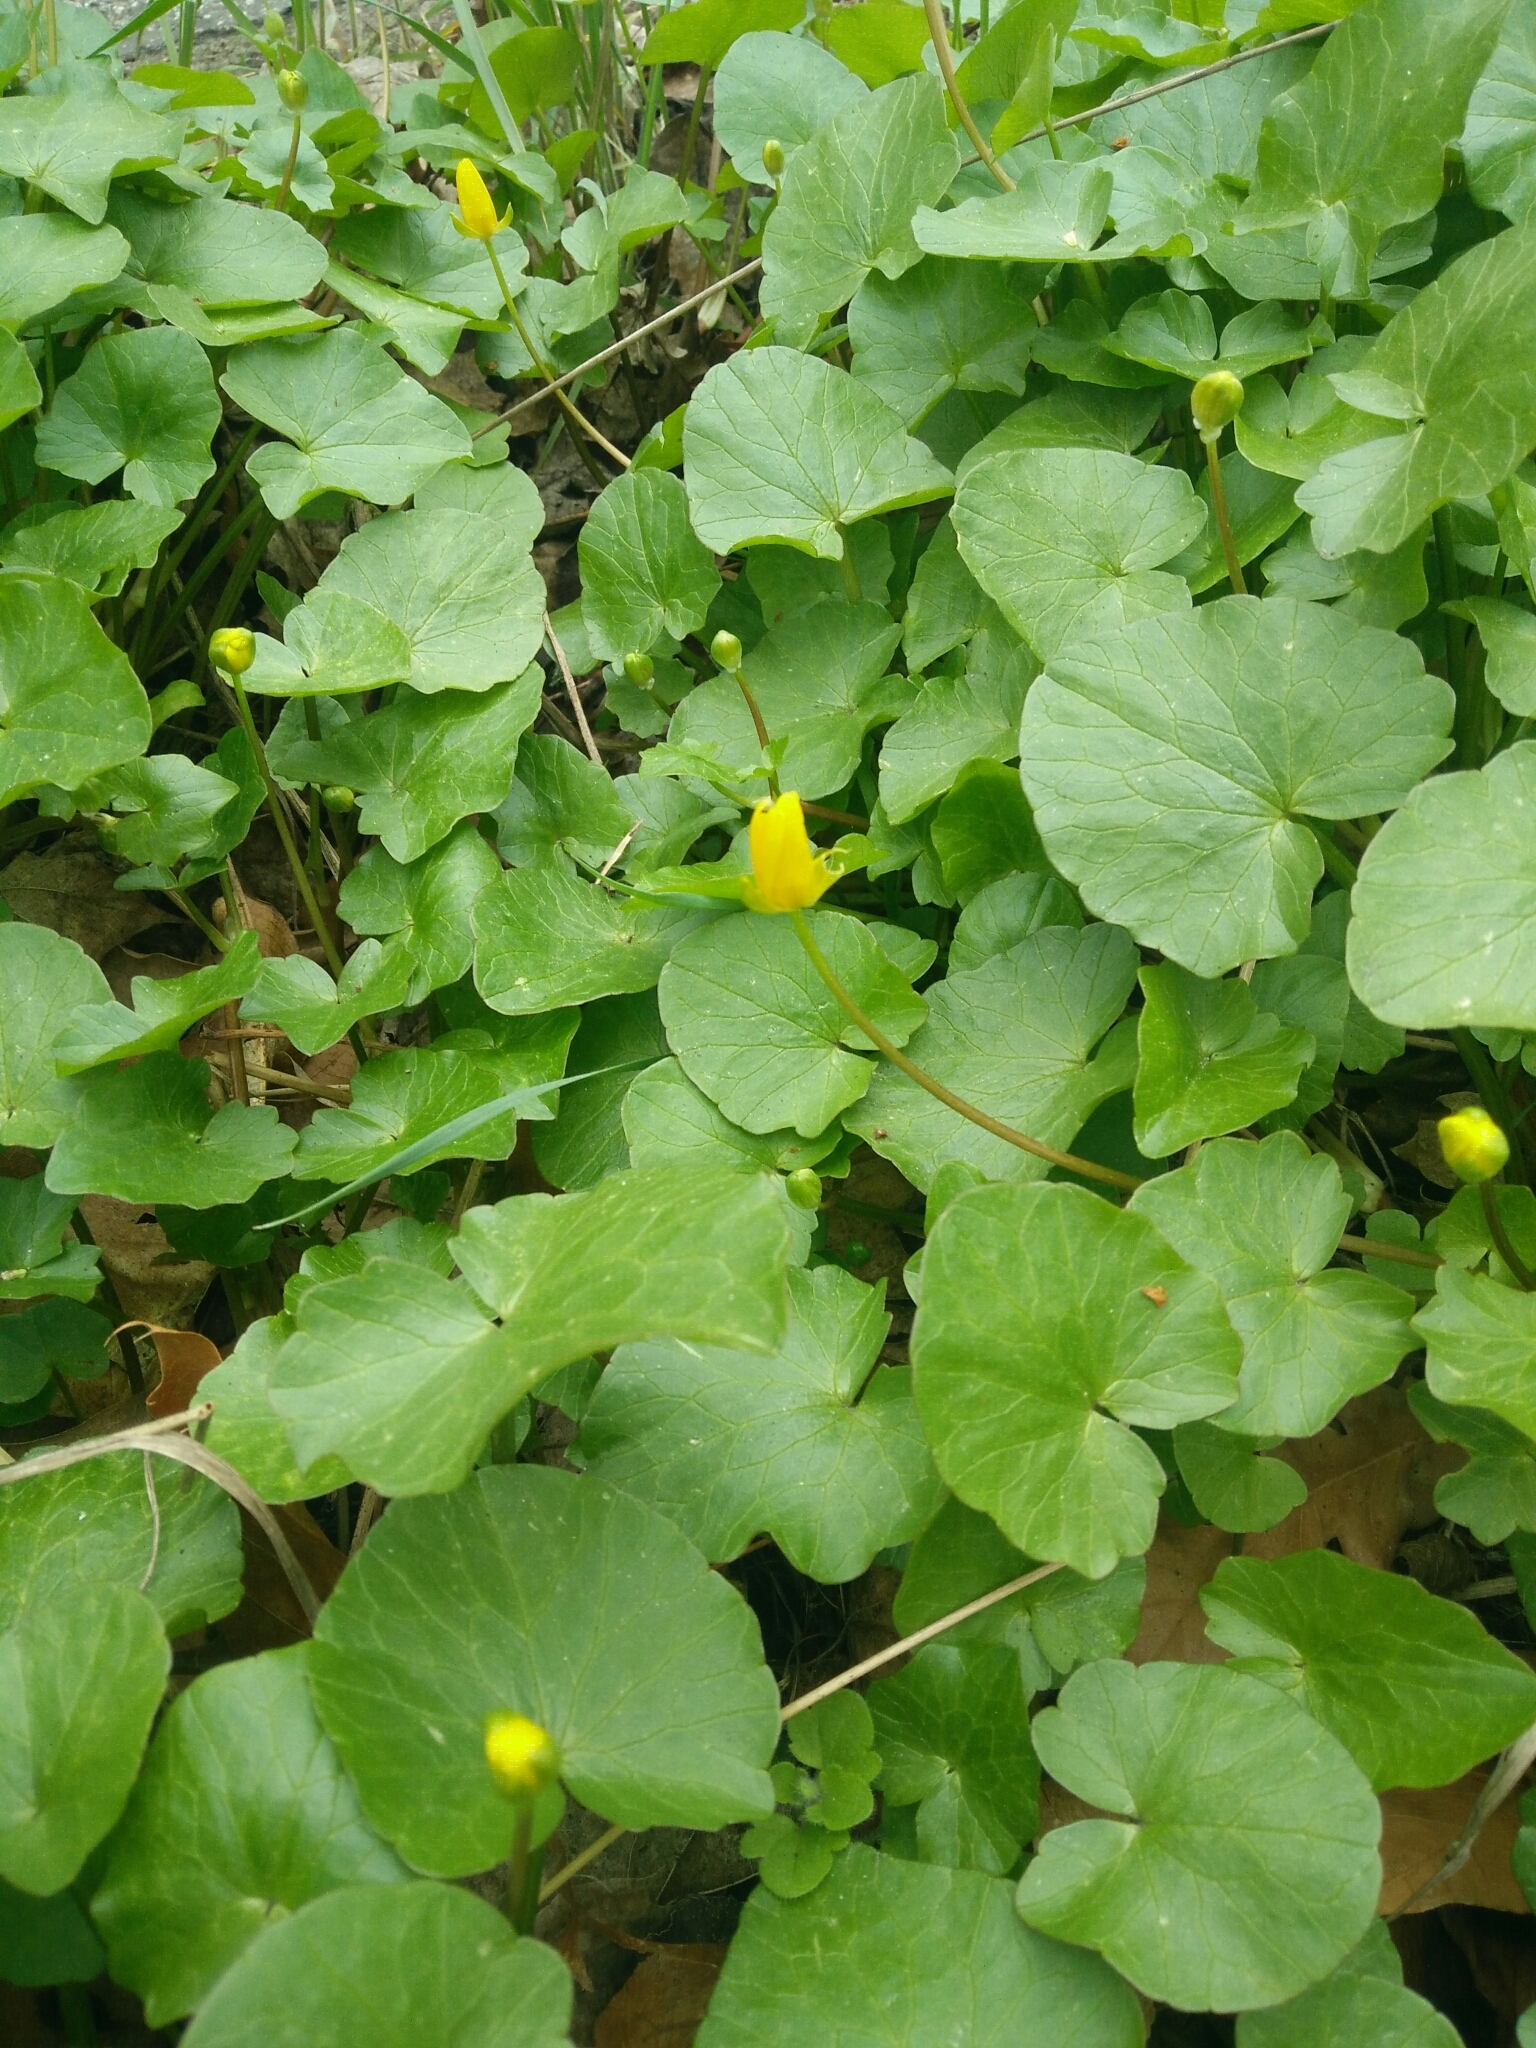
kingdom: Plantae
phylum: Tracheophyta
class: Magnoliopsida
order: Ranunculales
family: Ranunculaceae
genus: Ficaria
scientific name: Ficaria verna
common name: Lesser celandine
